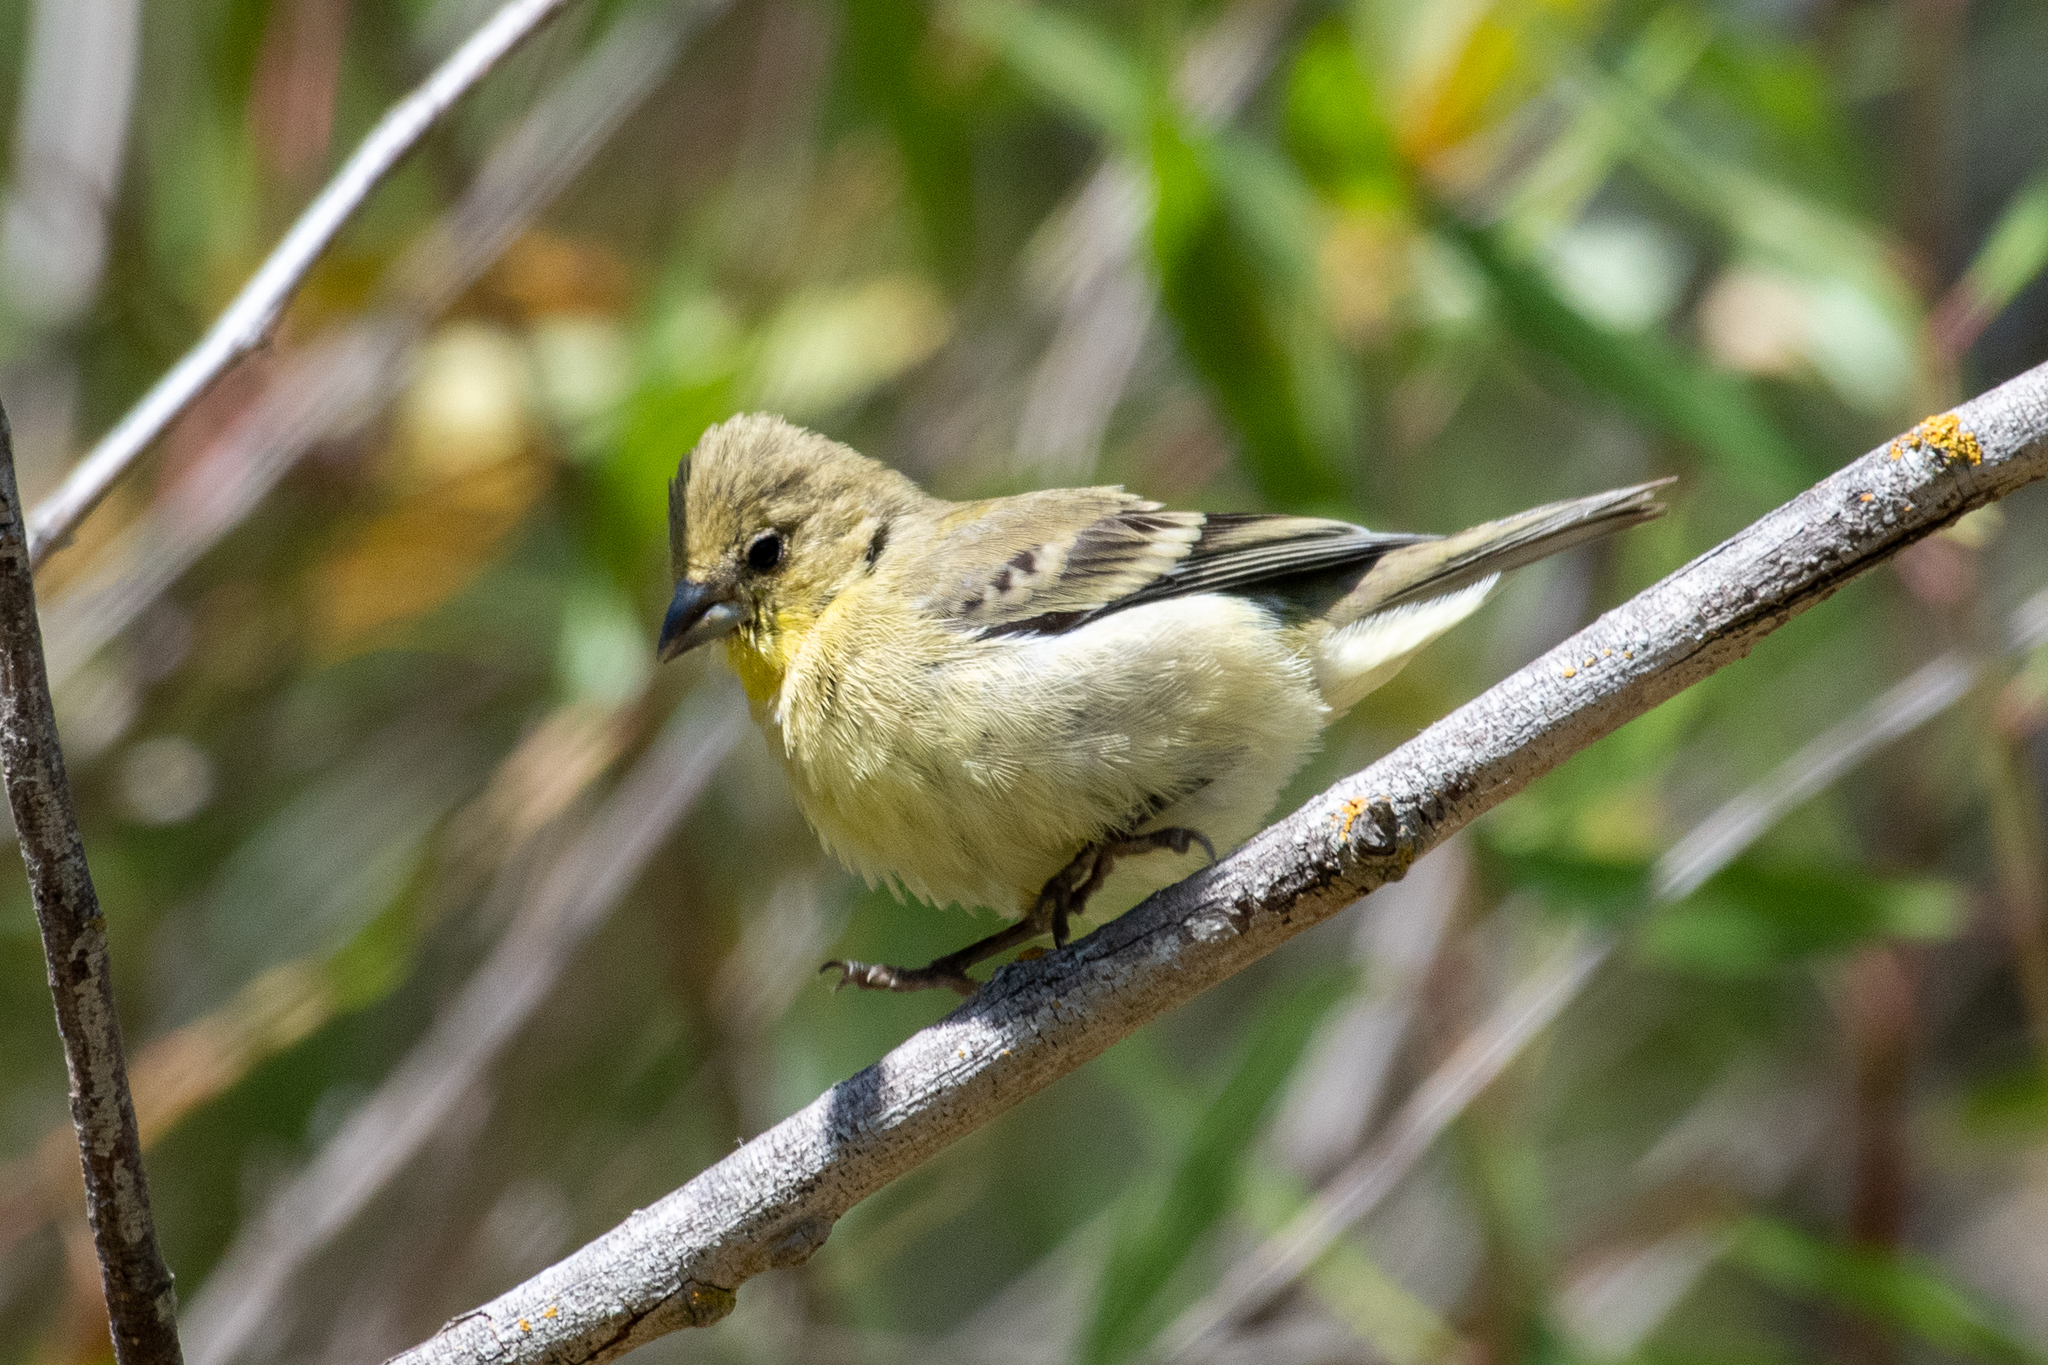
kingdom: Animalia
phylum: Chordata
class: Aves
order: Passeriformes
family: Fringillidae
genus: Spinus
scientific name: Spinus psaltria
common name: Lesser goldfinch
